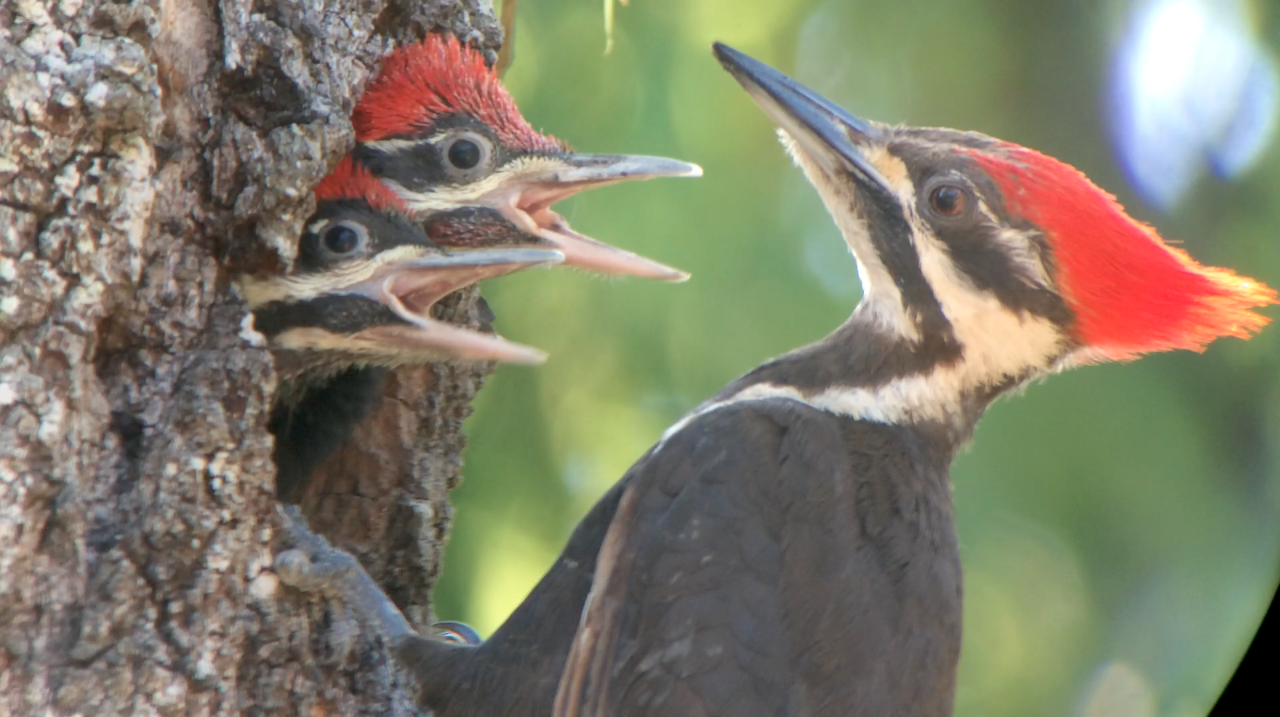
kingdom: Animalia
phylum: Chordata
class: Aves
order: Piciformes
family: Picidae
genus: Dryocopus
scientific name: Dryocopus pileatus
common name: Pileated woodpecker
